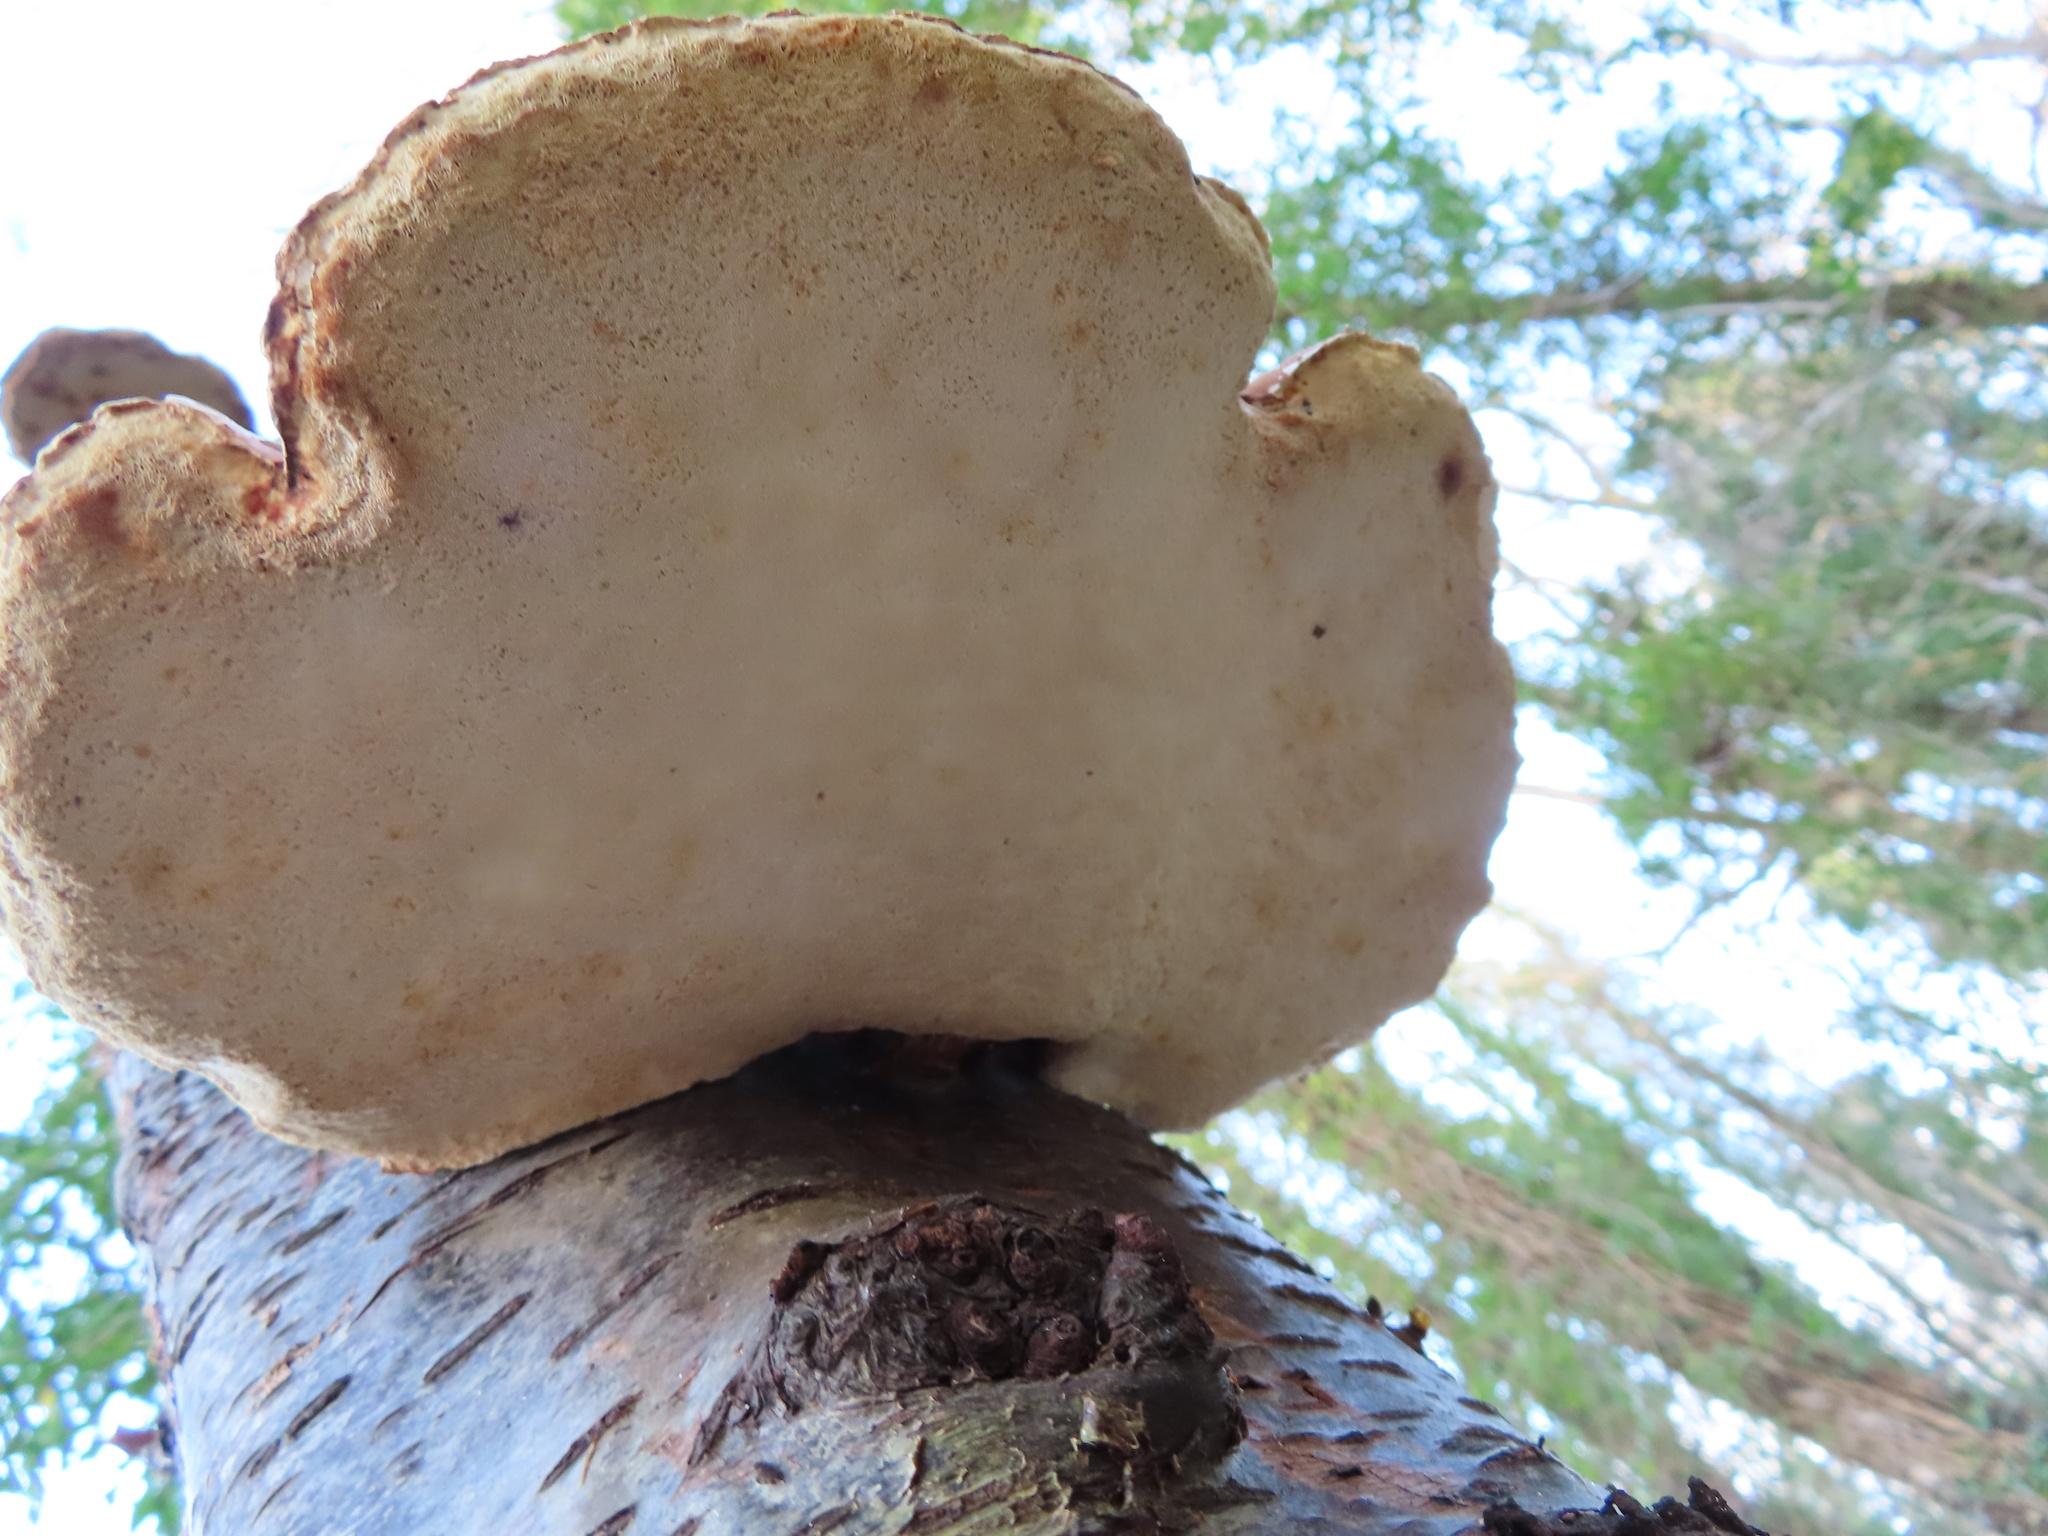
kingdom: Fungi
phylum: Basidiomycota
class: Agaricomycetes
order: Polyporales
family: Fomitopsidaceae
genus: Fomitopsis
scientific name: Fomitopsis betulina
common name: Birch polypore
